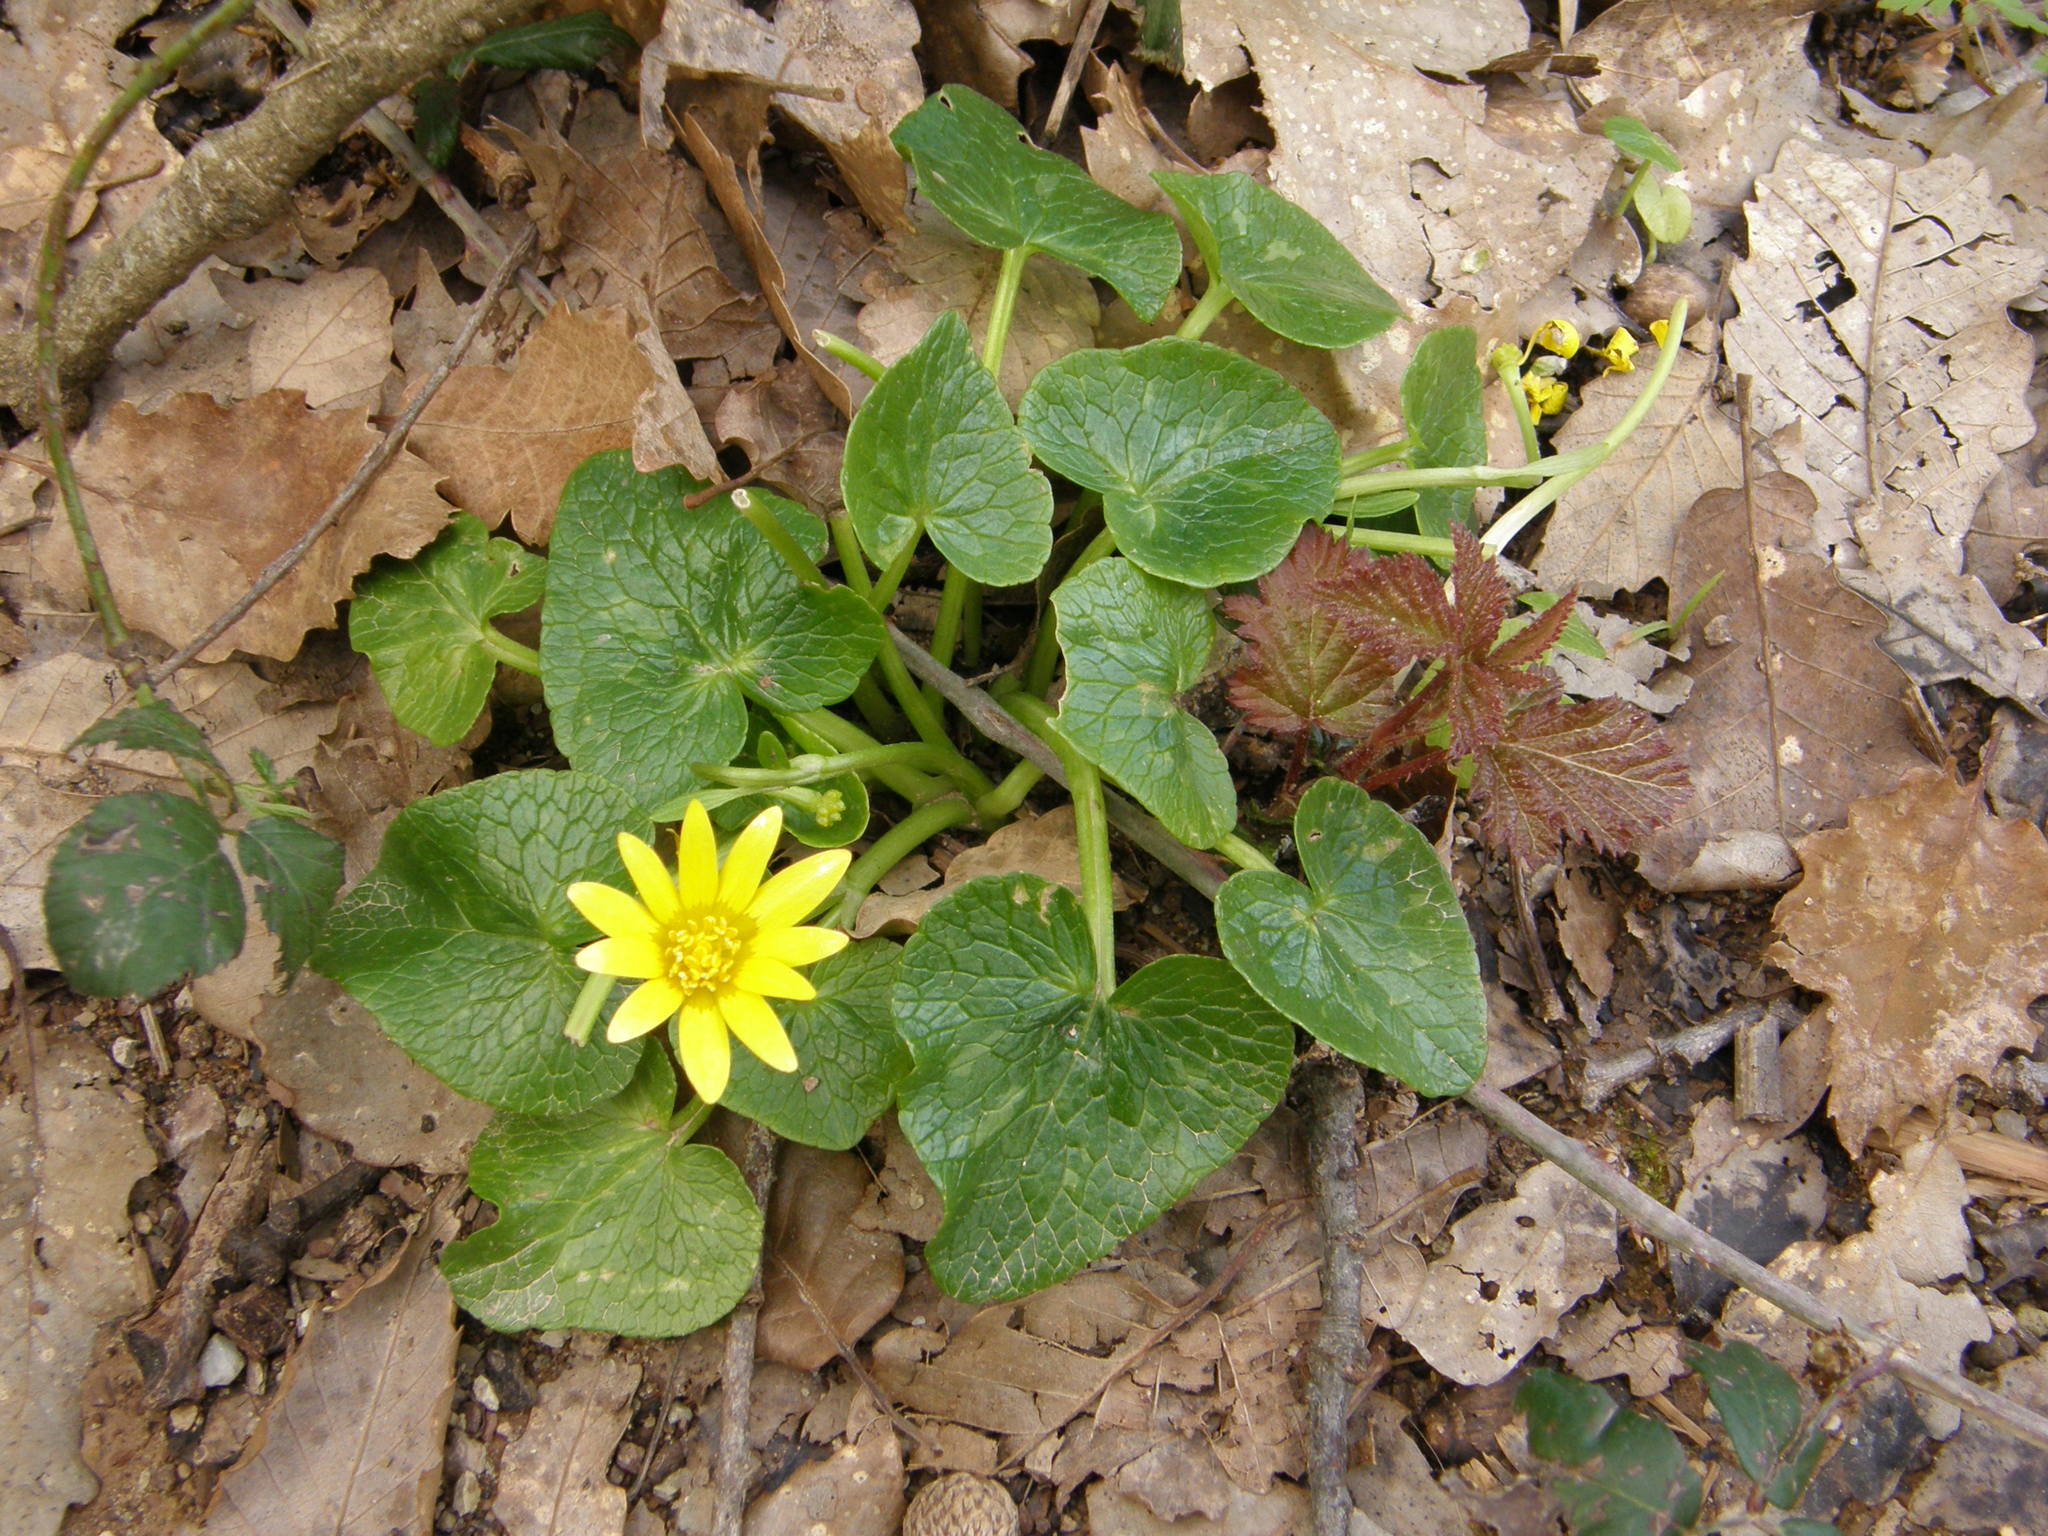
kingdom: Plantae
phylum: Tracheophyta
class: Magnoliopsida
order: Ranunculales
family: Ranunculaceae
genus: Ficaria
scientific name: Ficaria verna
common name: Lesser celandine
